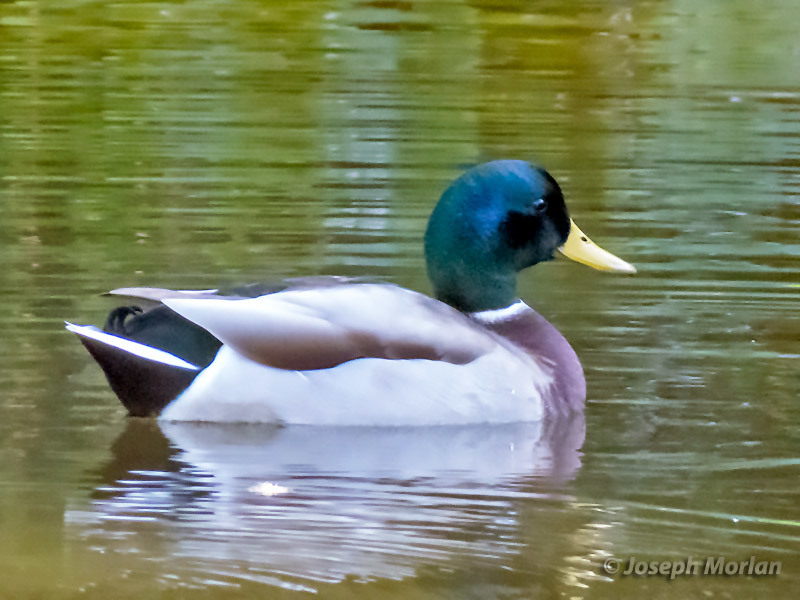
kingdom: Animalia
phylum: Chordata
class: Aves
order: Anseriformes
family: Anatidae
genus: Anas
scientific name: Anas platyrhynchos
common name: Mallard
